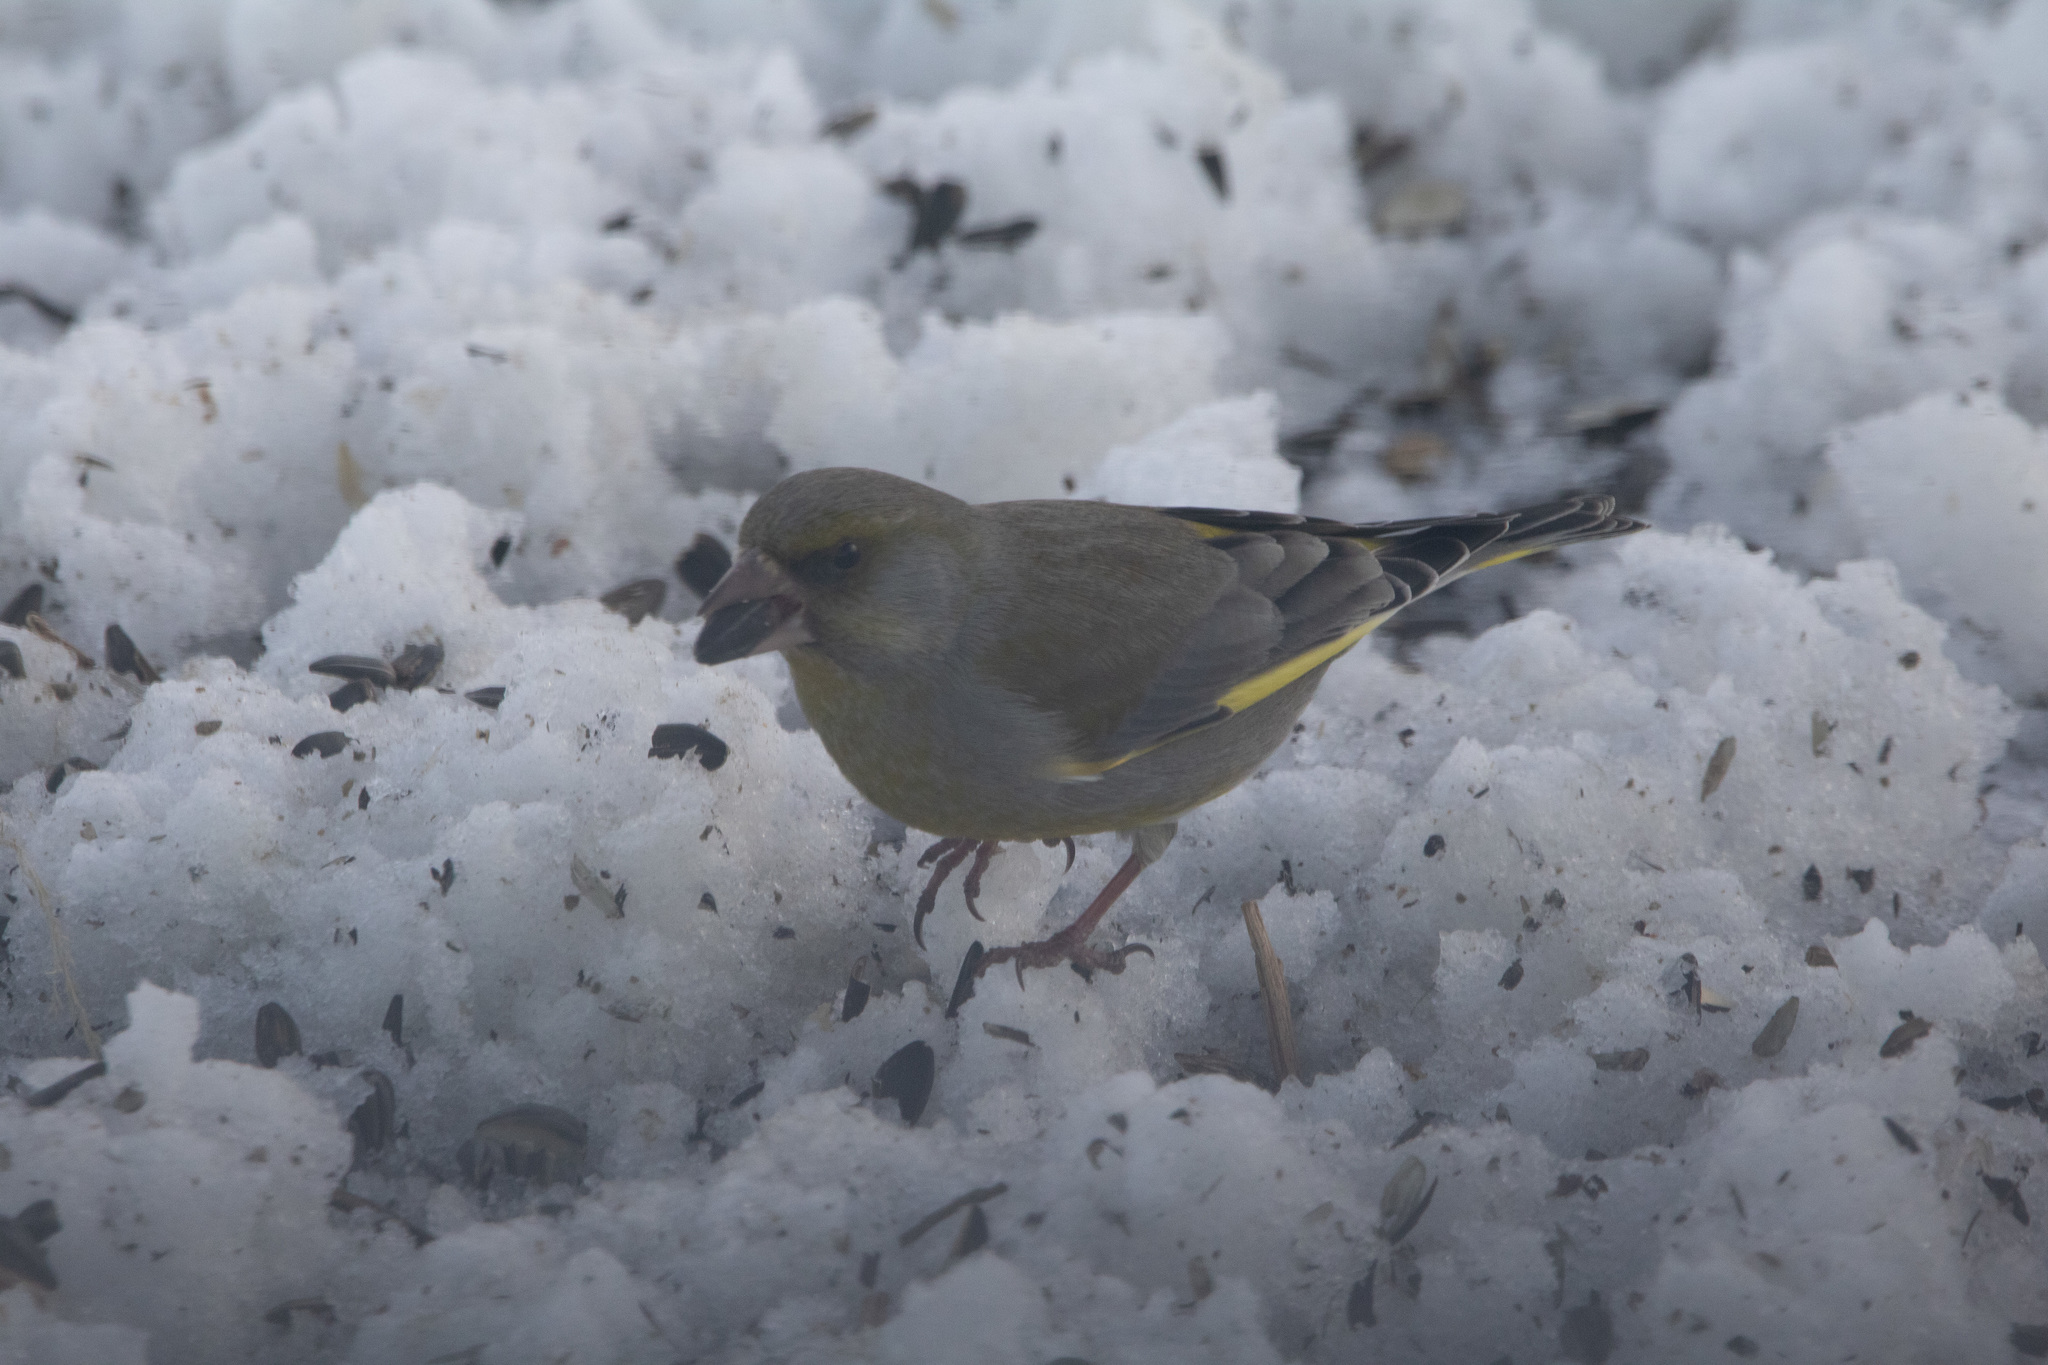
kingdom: Plantae
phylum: Tracheophyta
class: Liliopsida
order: Poales
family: Poaceae
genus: Chloris
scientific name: Chloris chloris
